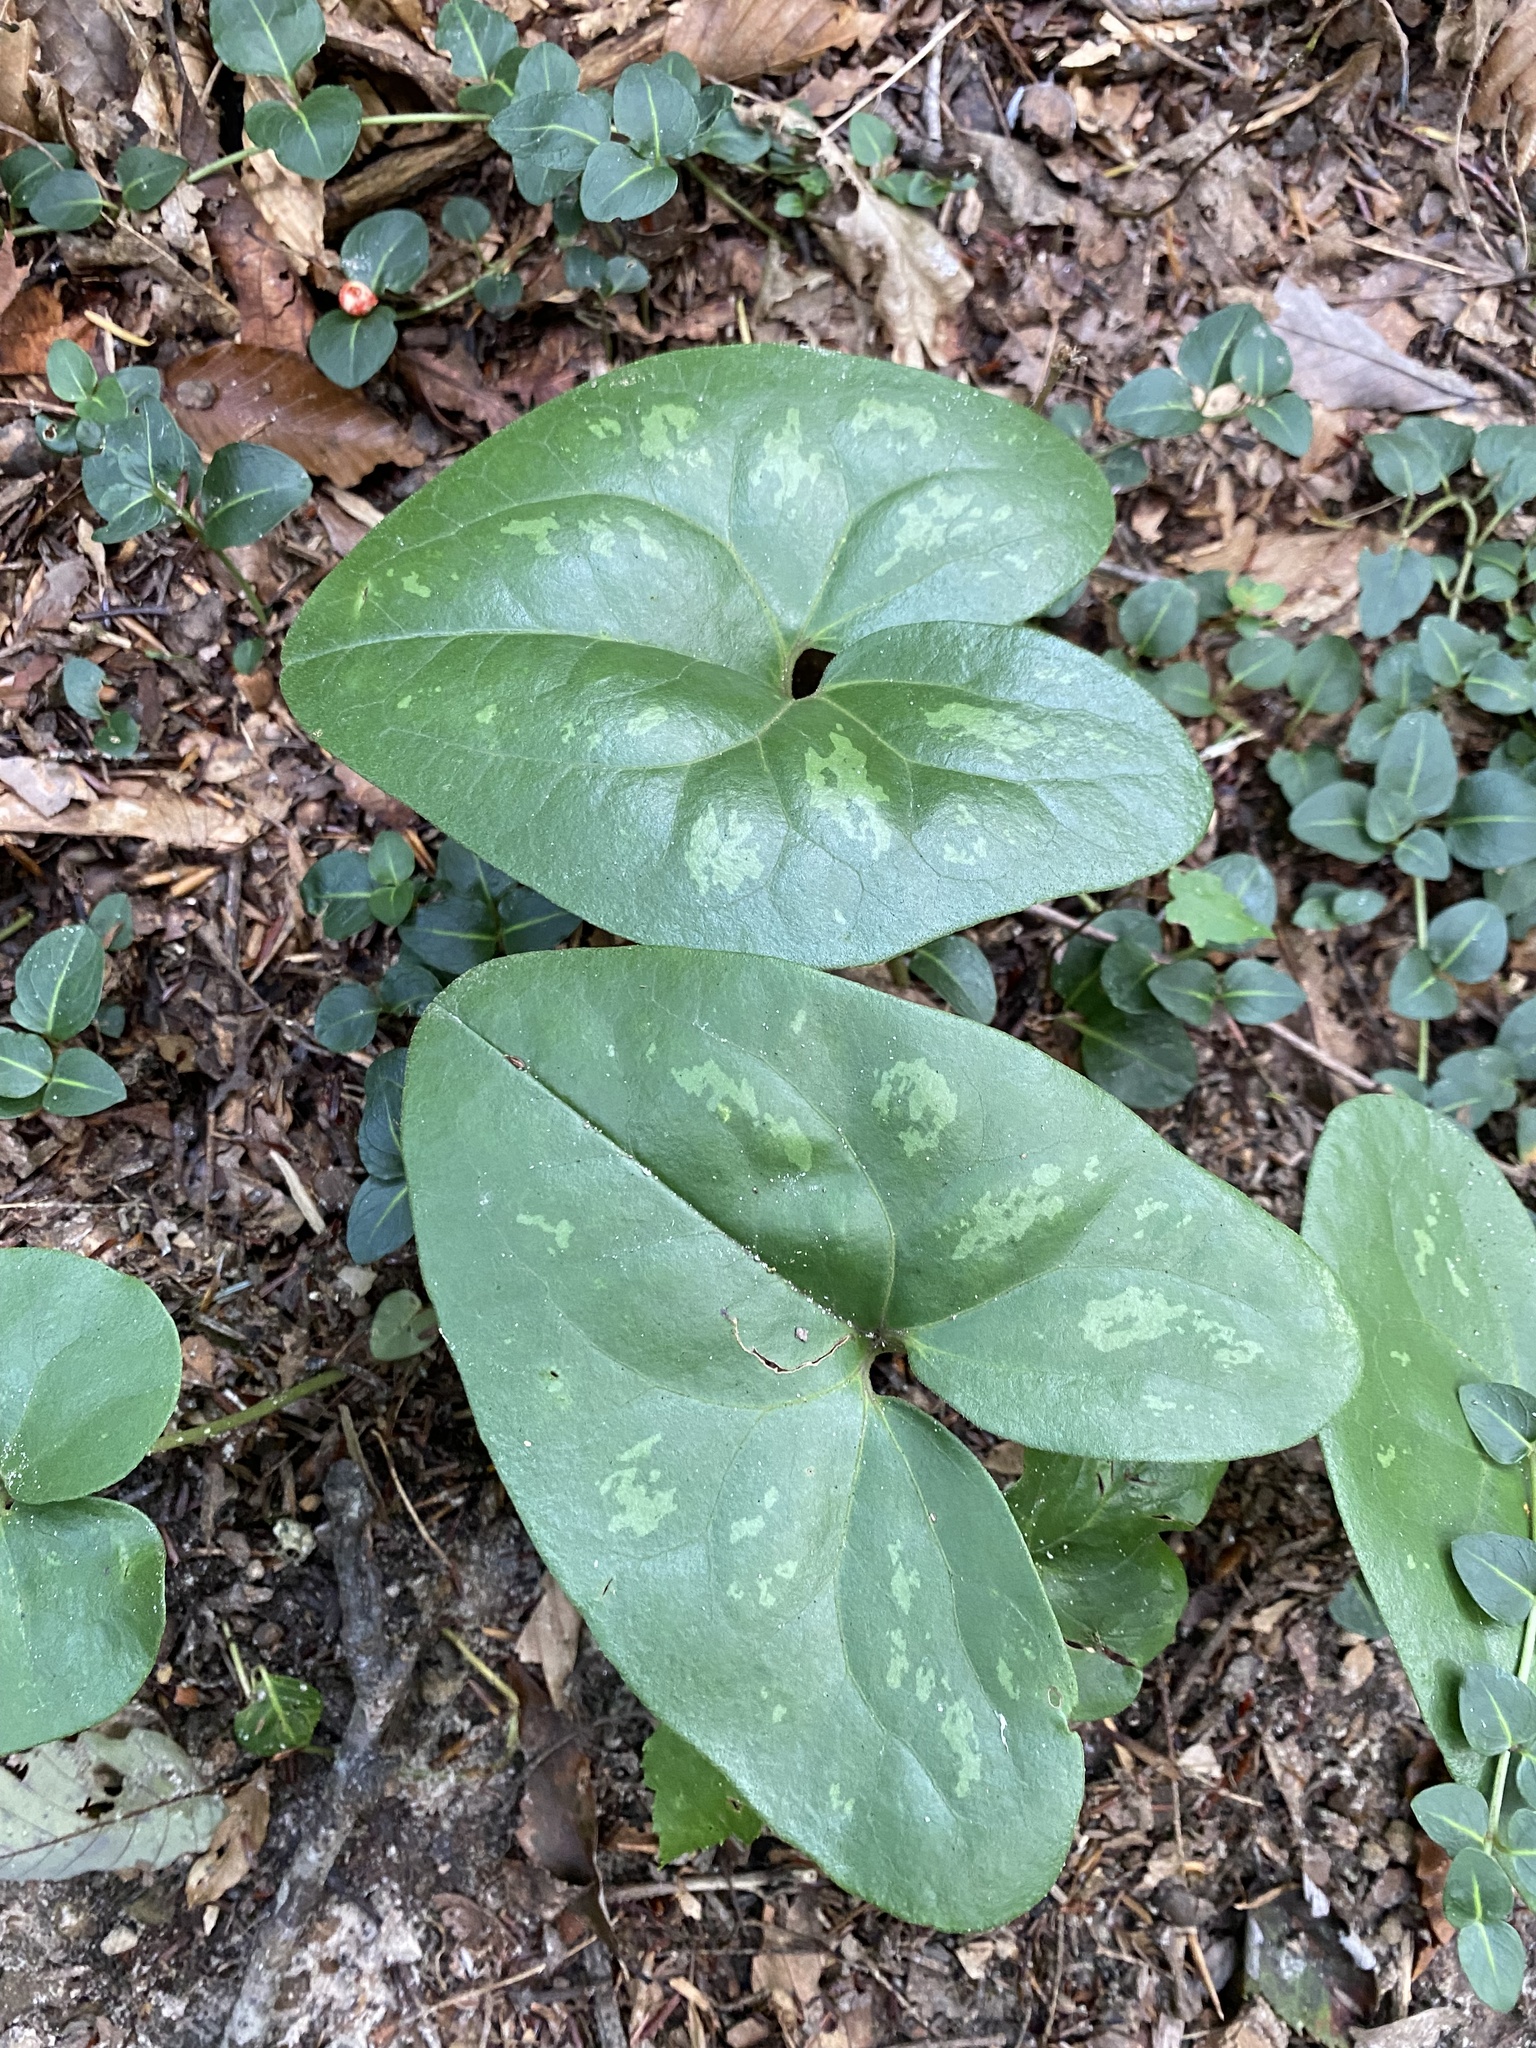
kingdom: Plantae
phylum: Tracheophyta
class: Magnoliopsida
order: Piperales
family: Aristolochiaceae
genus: Hexastylis
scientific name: Hexastylis arifolia
